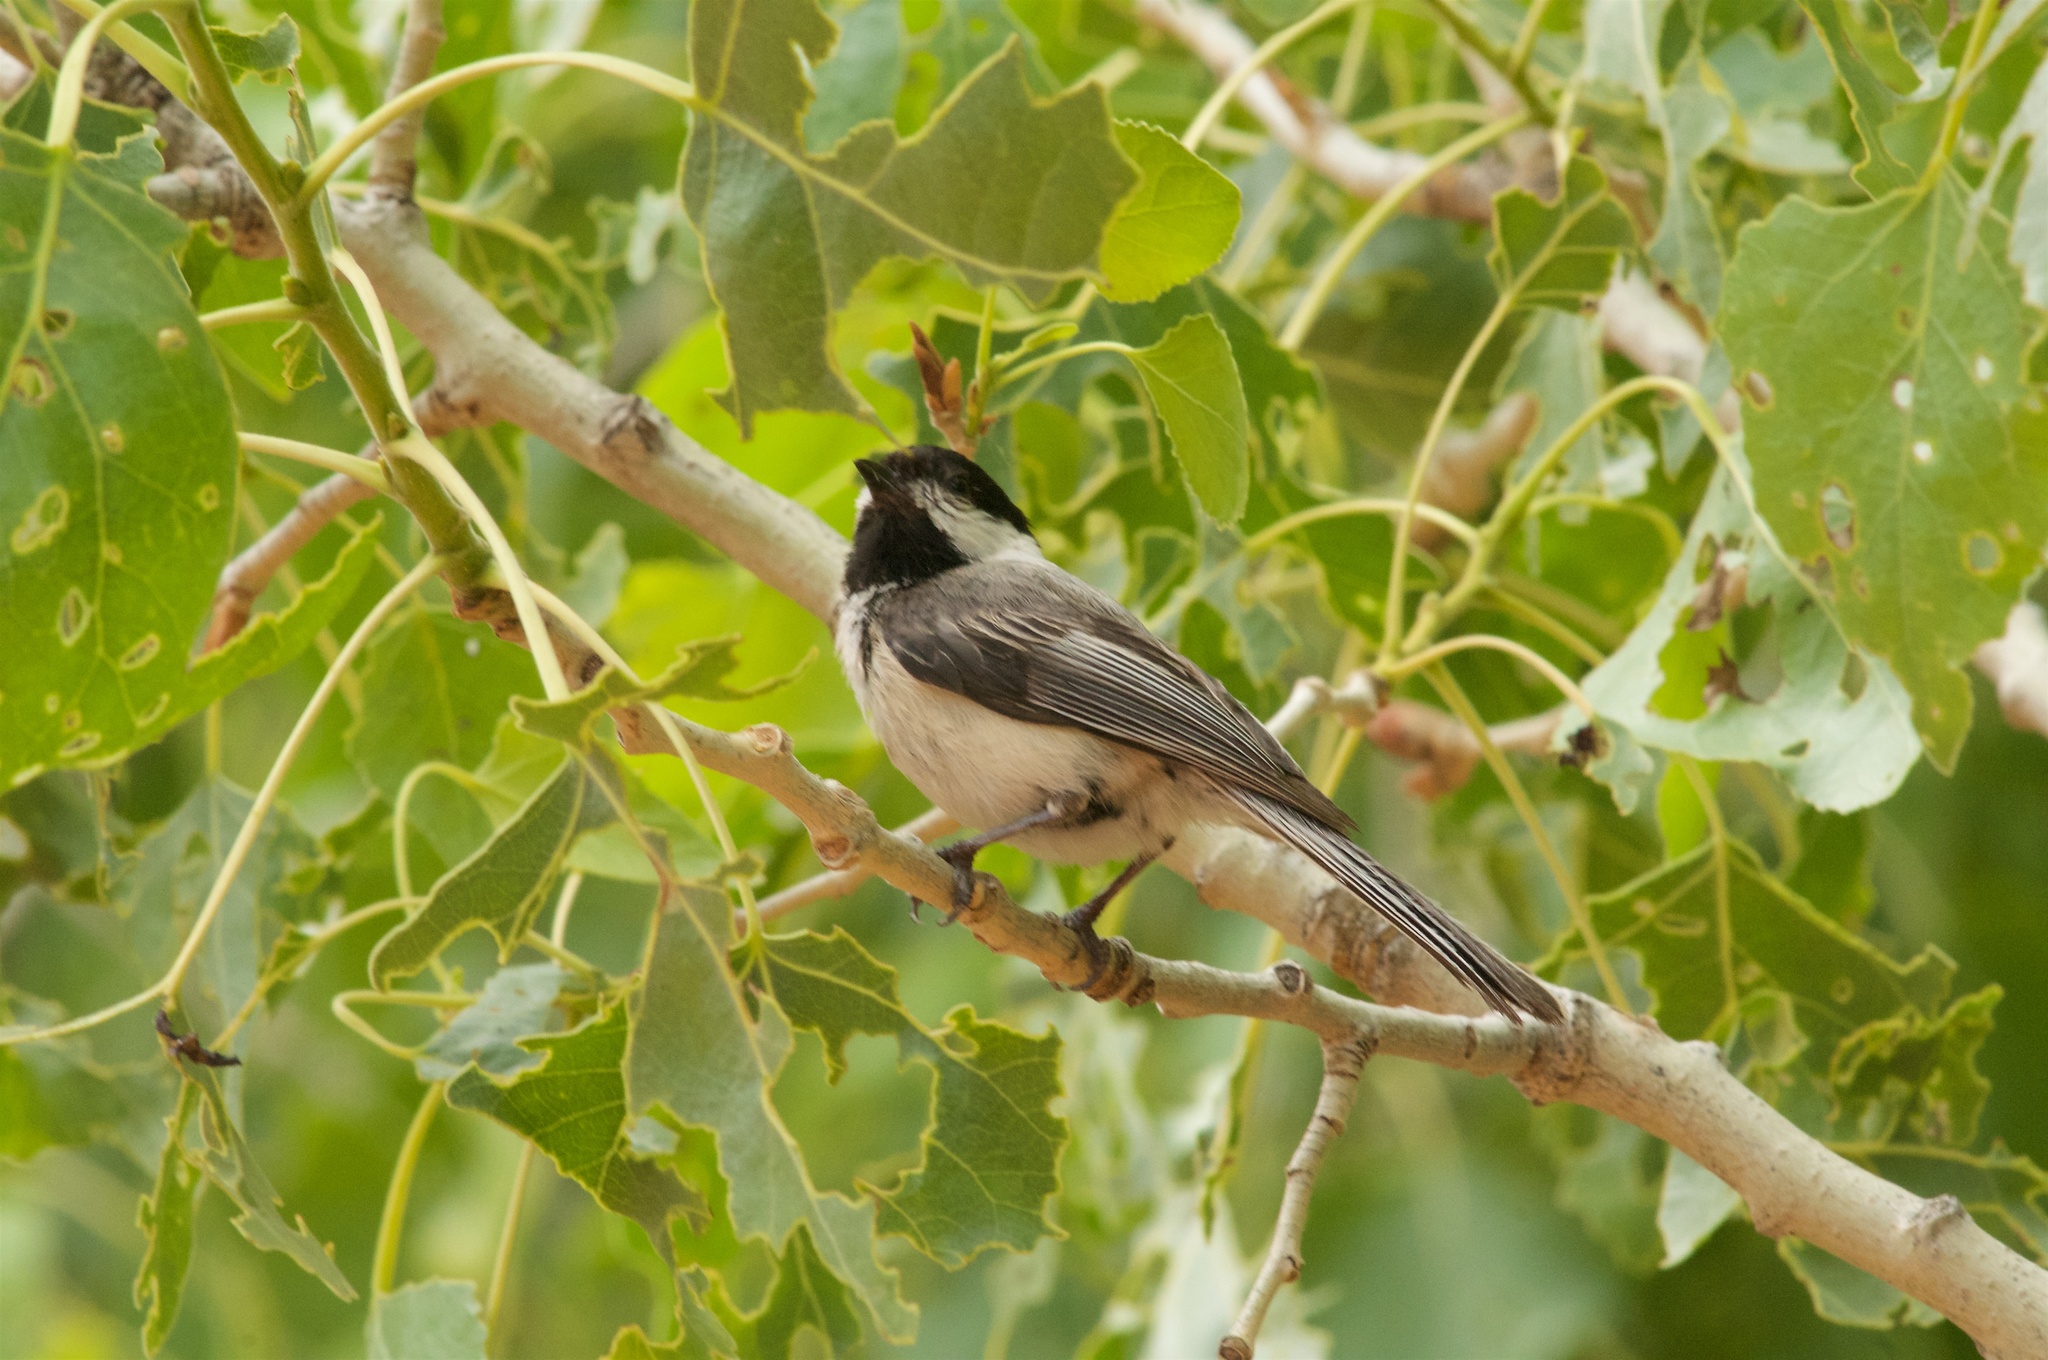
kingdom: Animalia
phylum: Chordata
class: Aves
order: Passeriformes
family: Paridae
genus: Poecile
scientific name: Poecile atricapillus
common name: Black-capped chickadee
